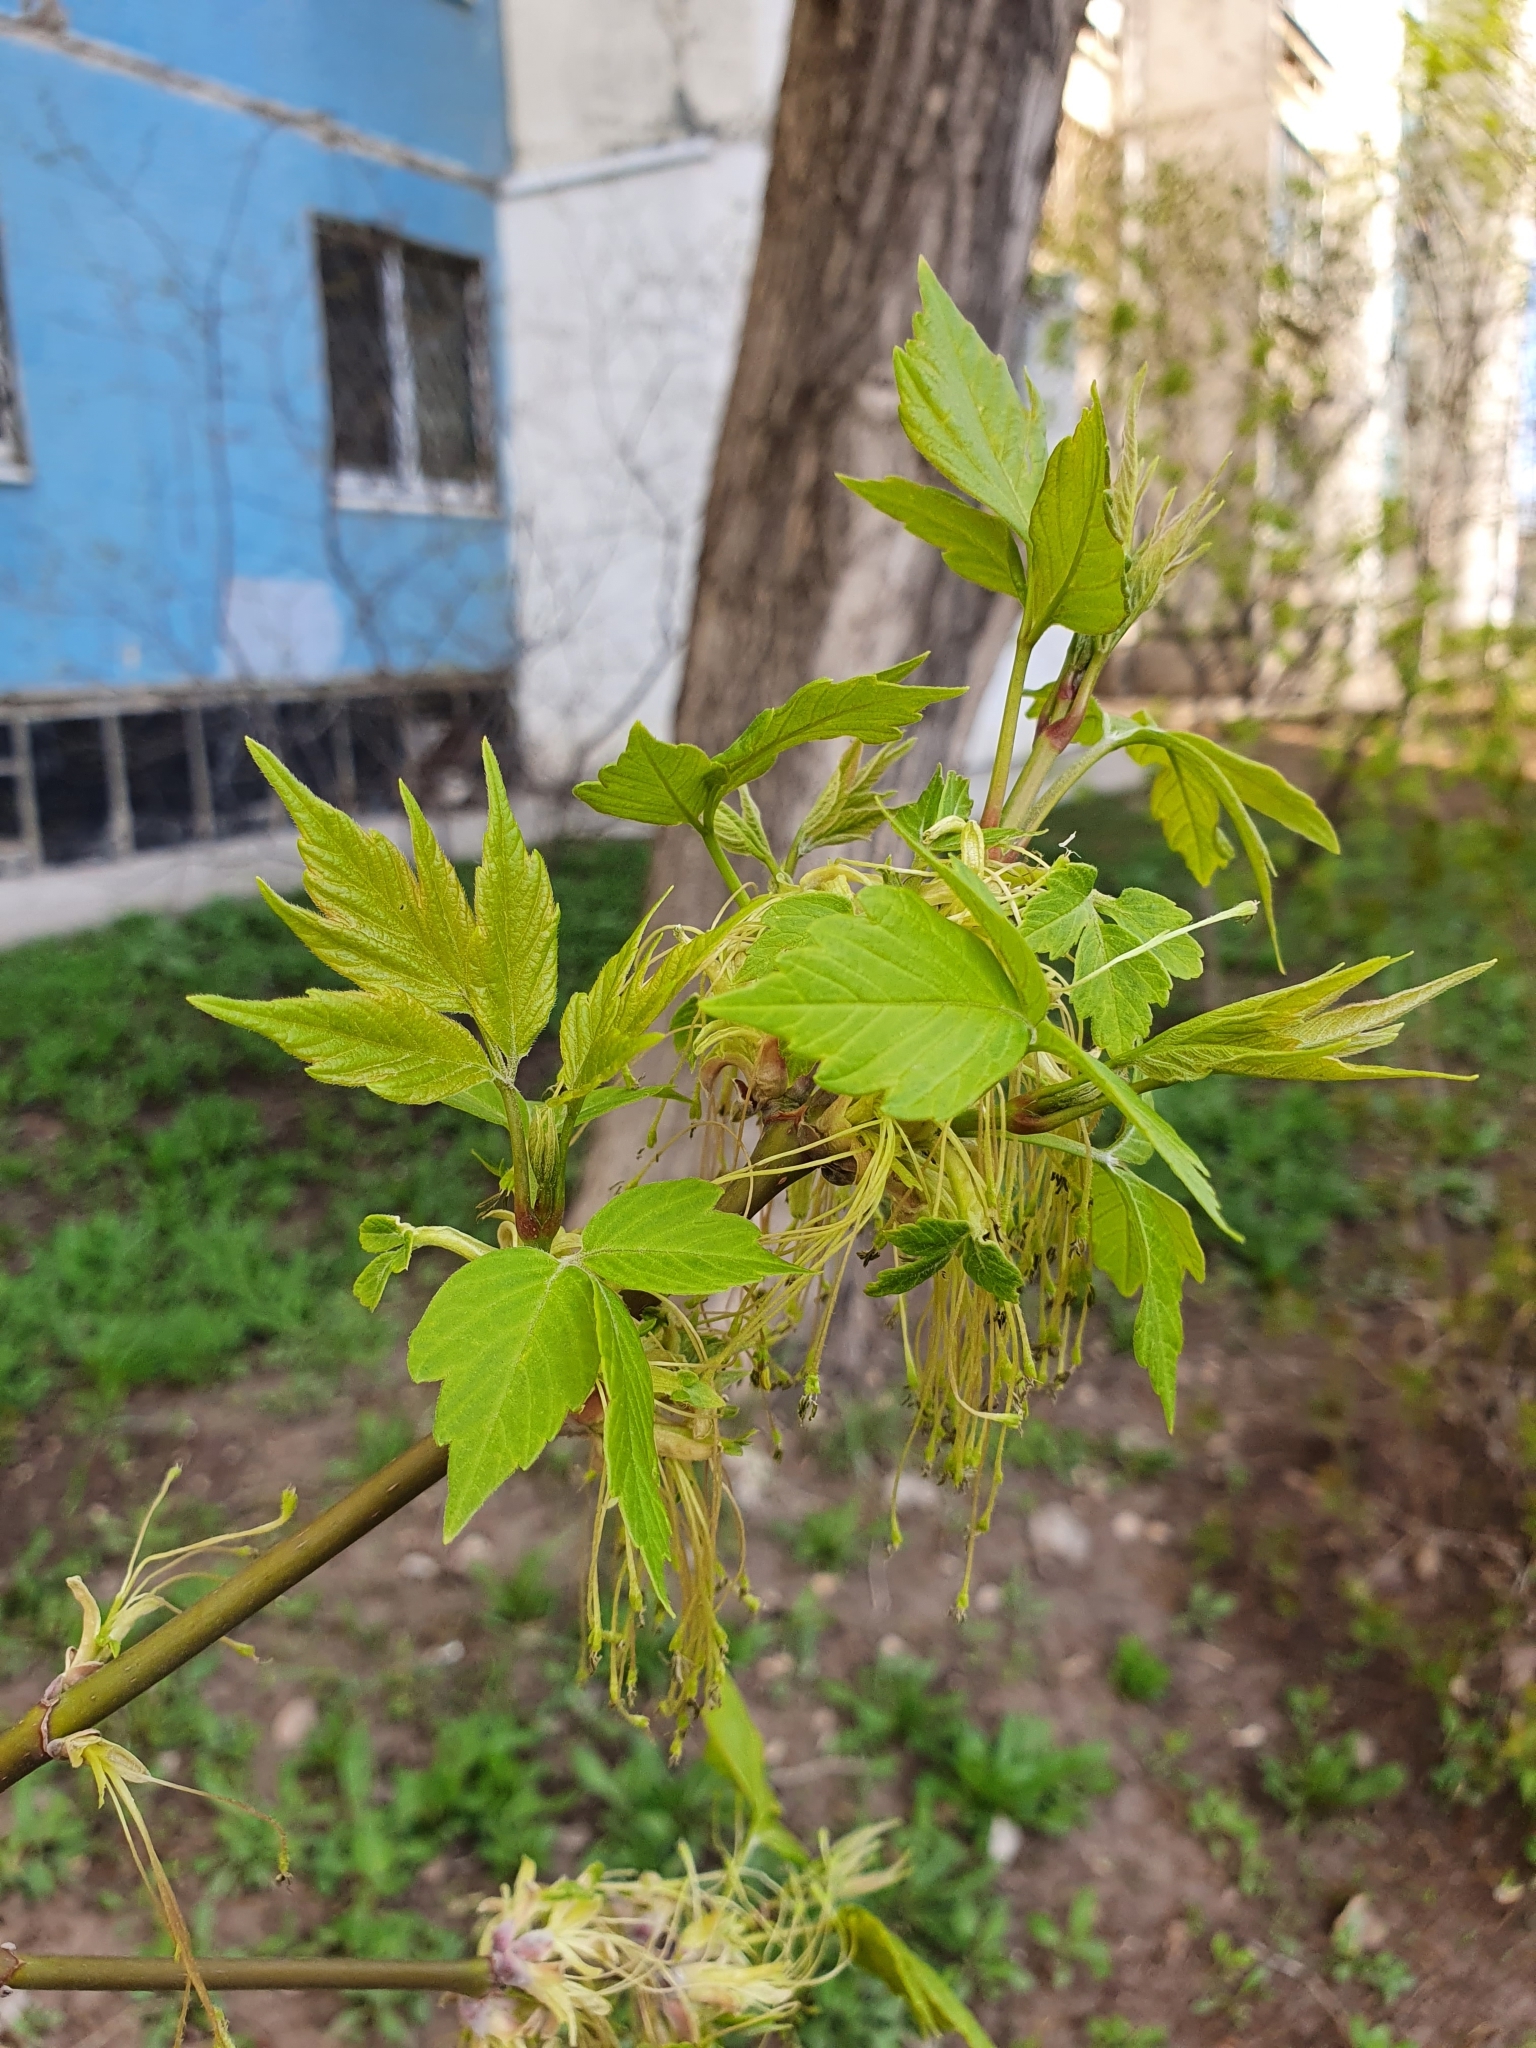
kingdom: Plantae
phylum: Tracheophyta
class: Magnoliopsida
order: Sapindales
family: Sapindaceae
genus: Acer
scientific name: Acer negundo
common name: Ashleaf maple
